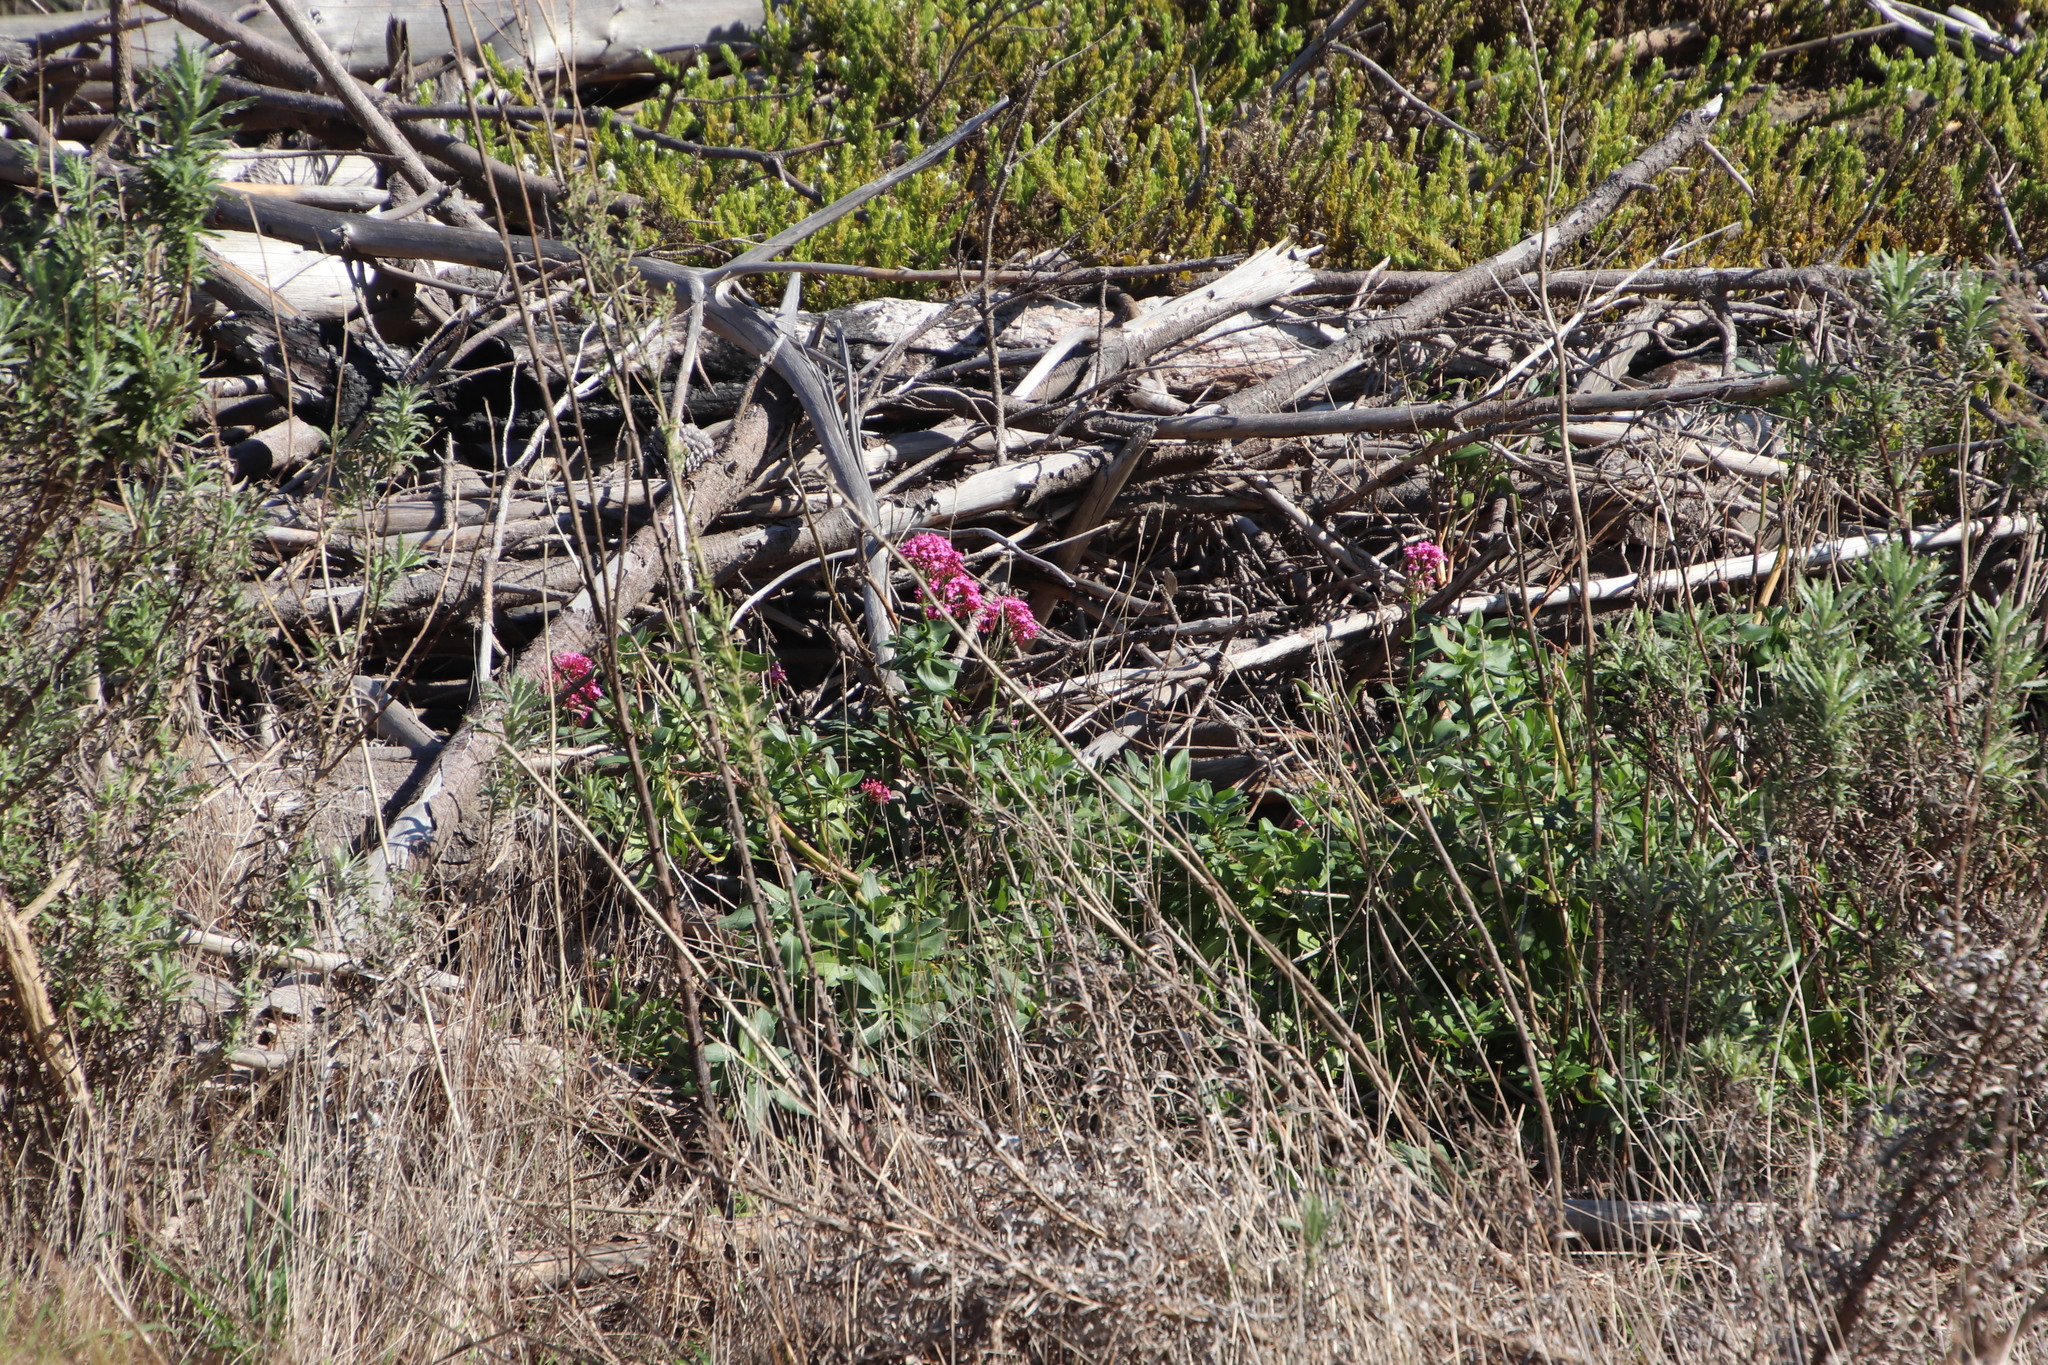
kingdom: Plantae
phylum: Tracheophyta
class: Magnoliopsida
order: Dipsacales
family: Caprifoliaceae
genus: Centranthus
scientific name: Centranthus ruber
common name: Red valerian
